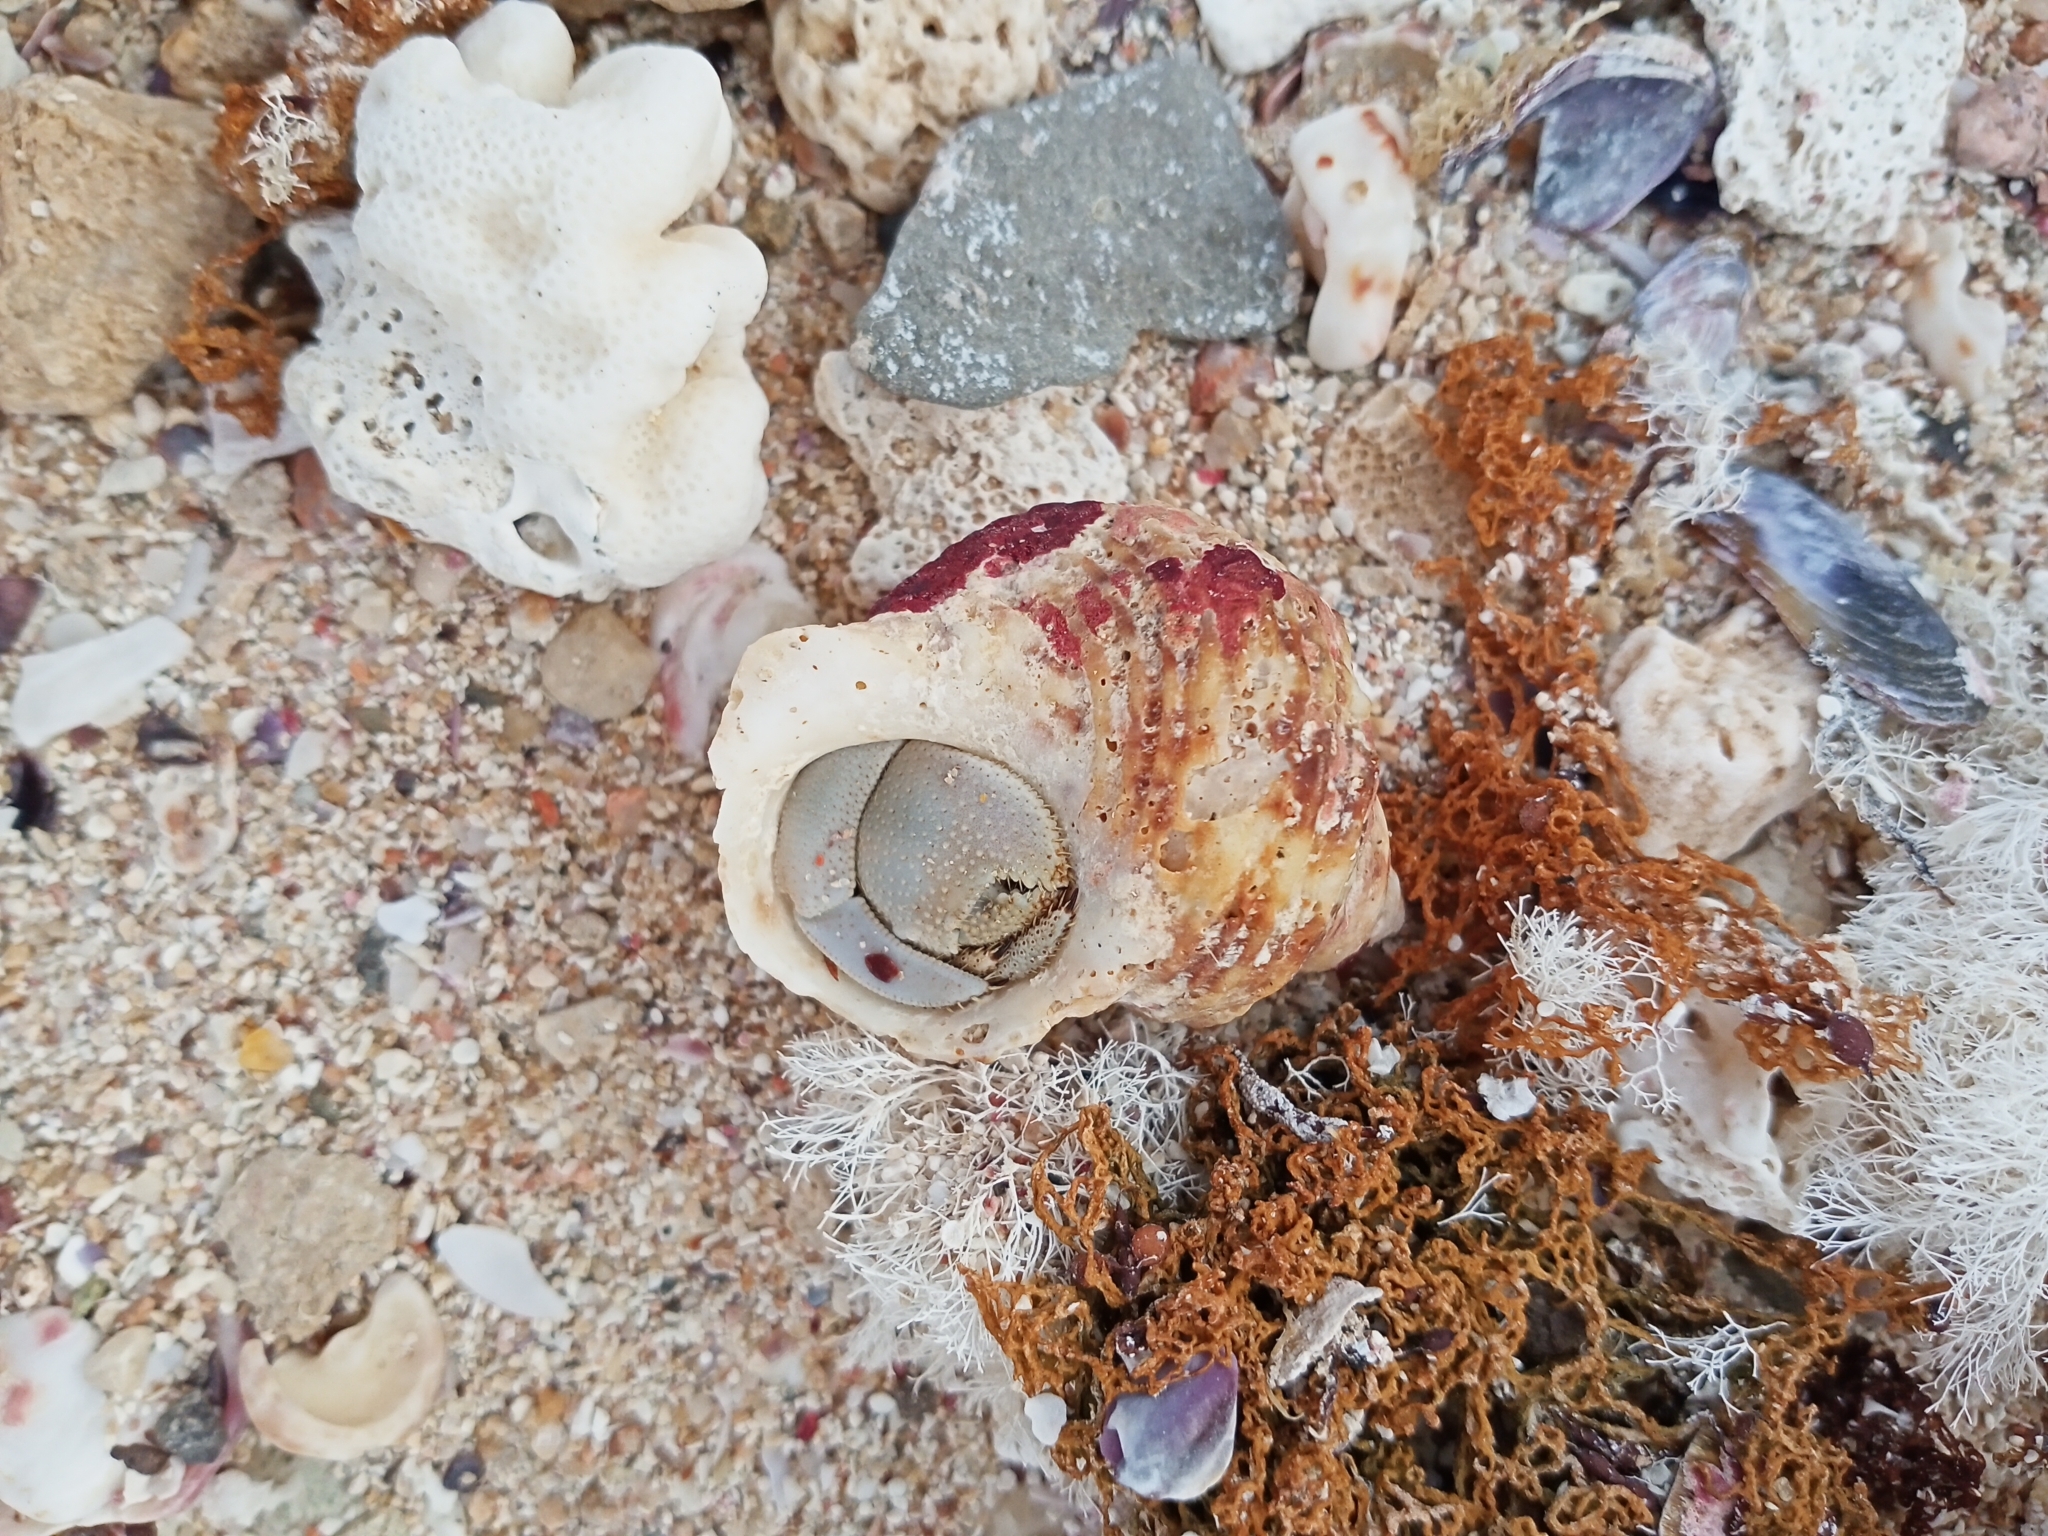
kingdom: Animalia
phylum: Arthropoda
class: Malacostraca
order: Decapoda
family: Coenobitidae
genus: Coenobita
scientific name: Coenobita scaevola
